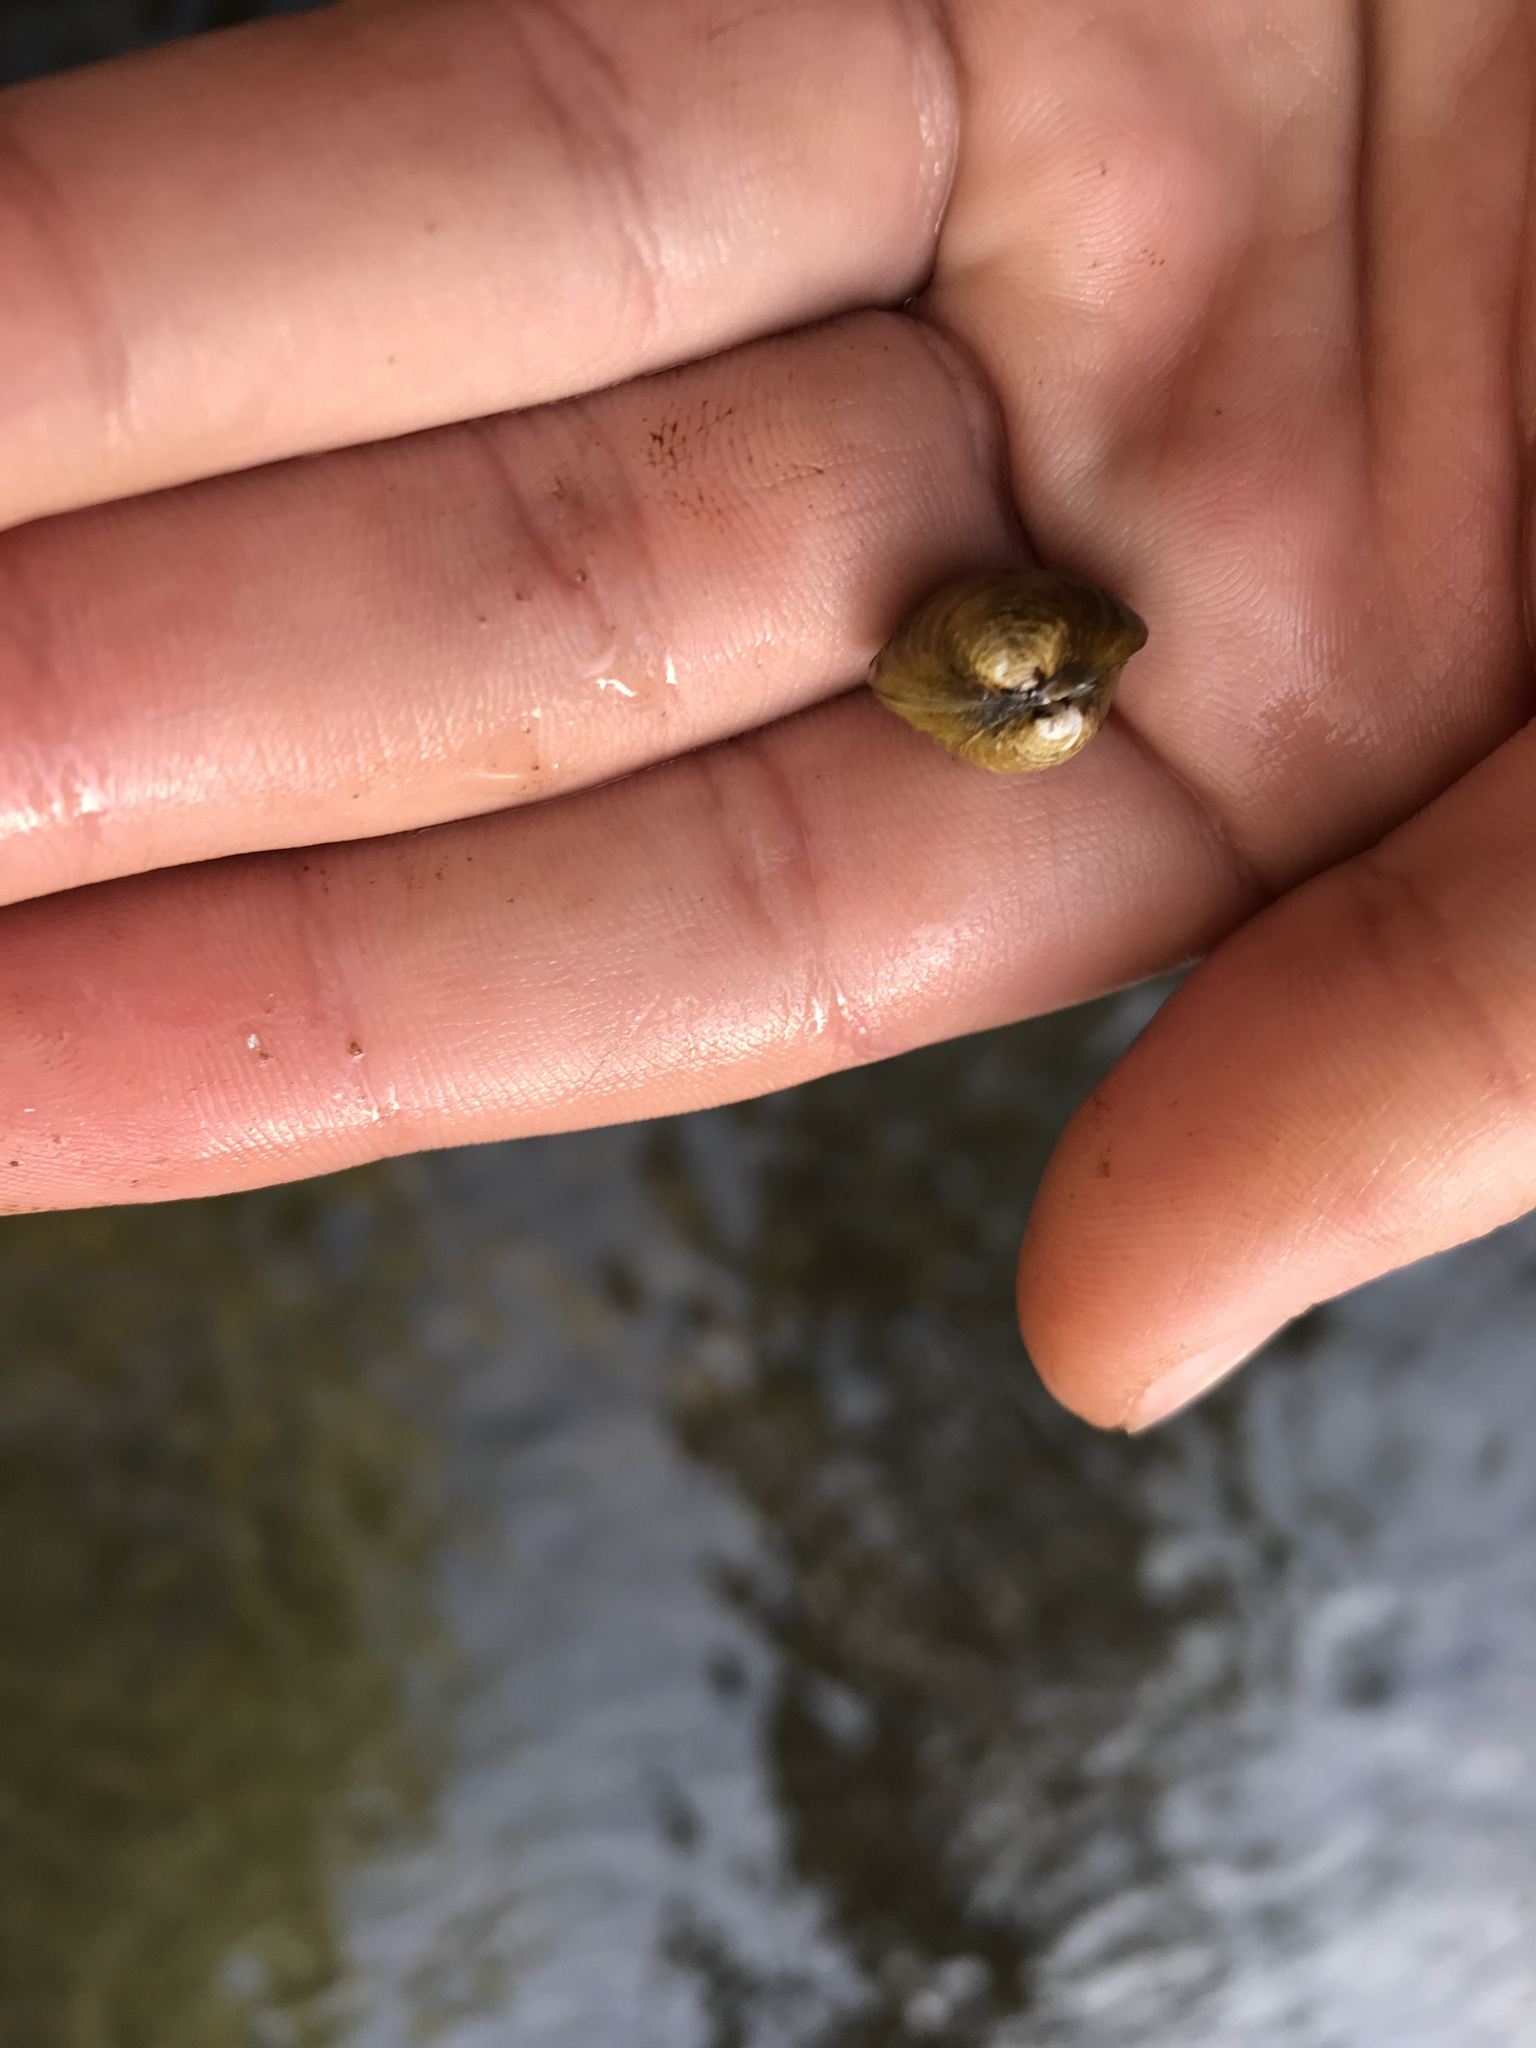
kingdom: Animalia
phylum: Mollusca
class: Bivalvia
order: Venerida
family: Cyrenidae
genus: Corbicula
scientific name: Corbicula fluminea
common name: Asian clam
